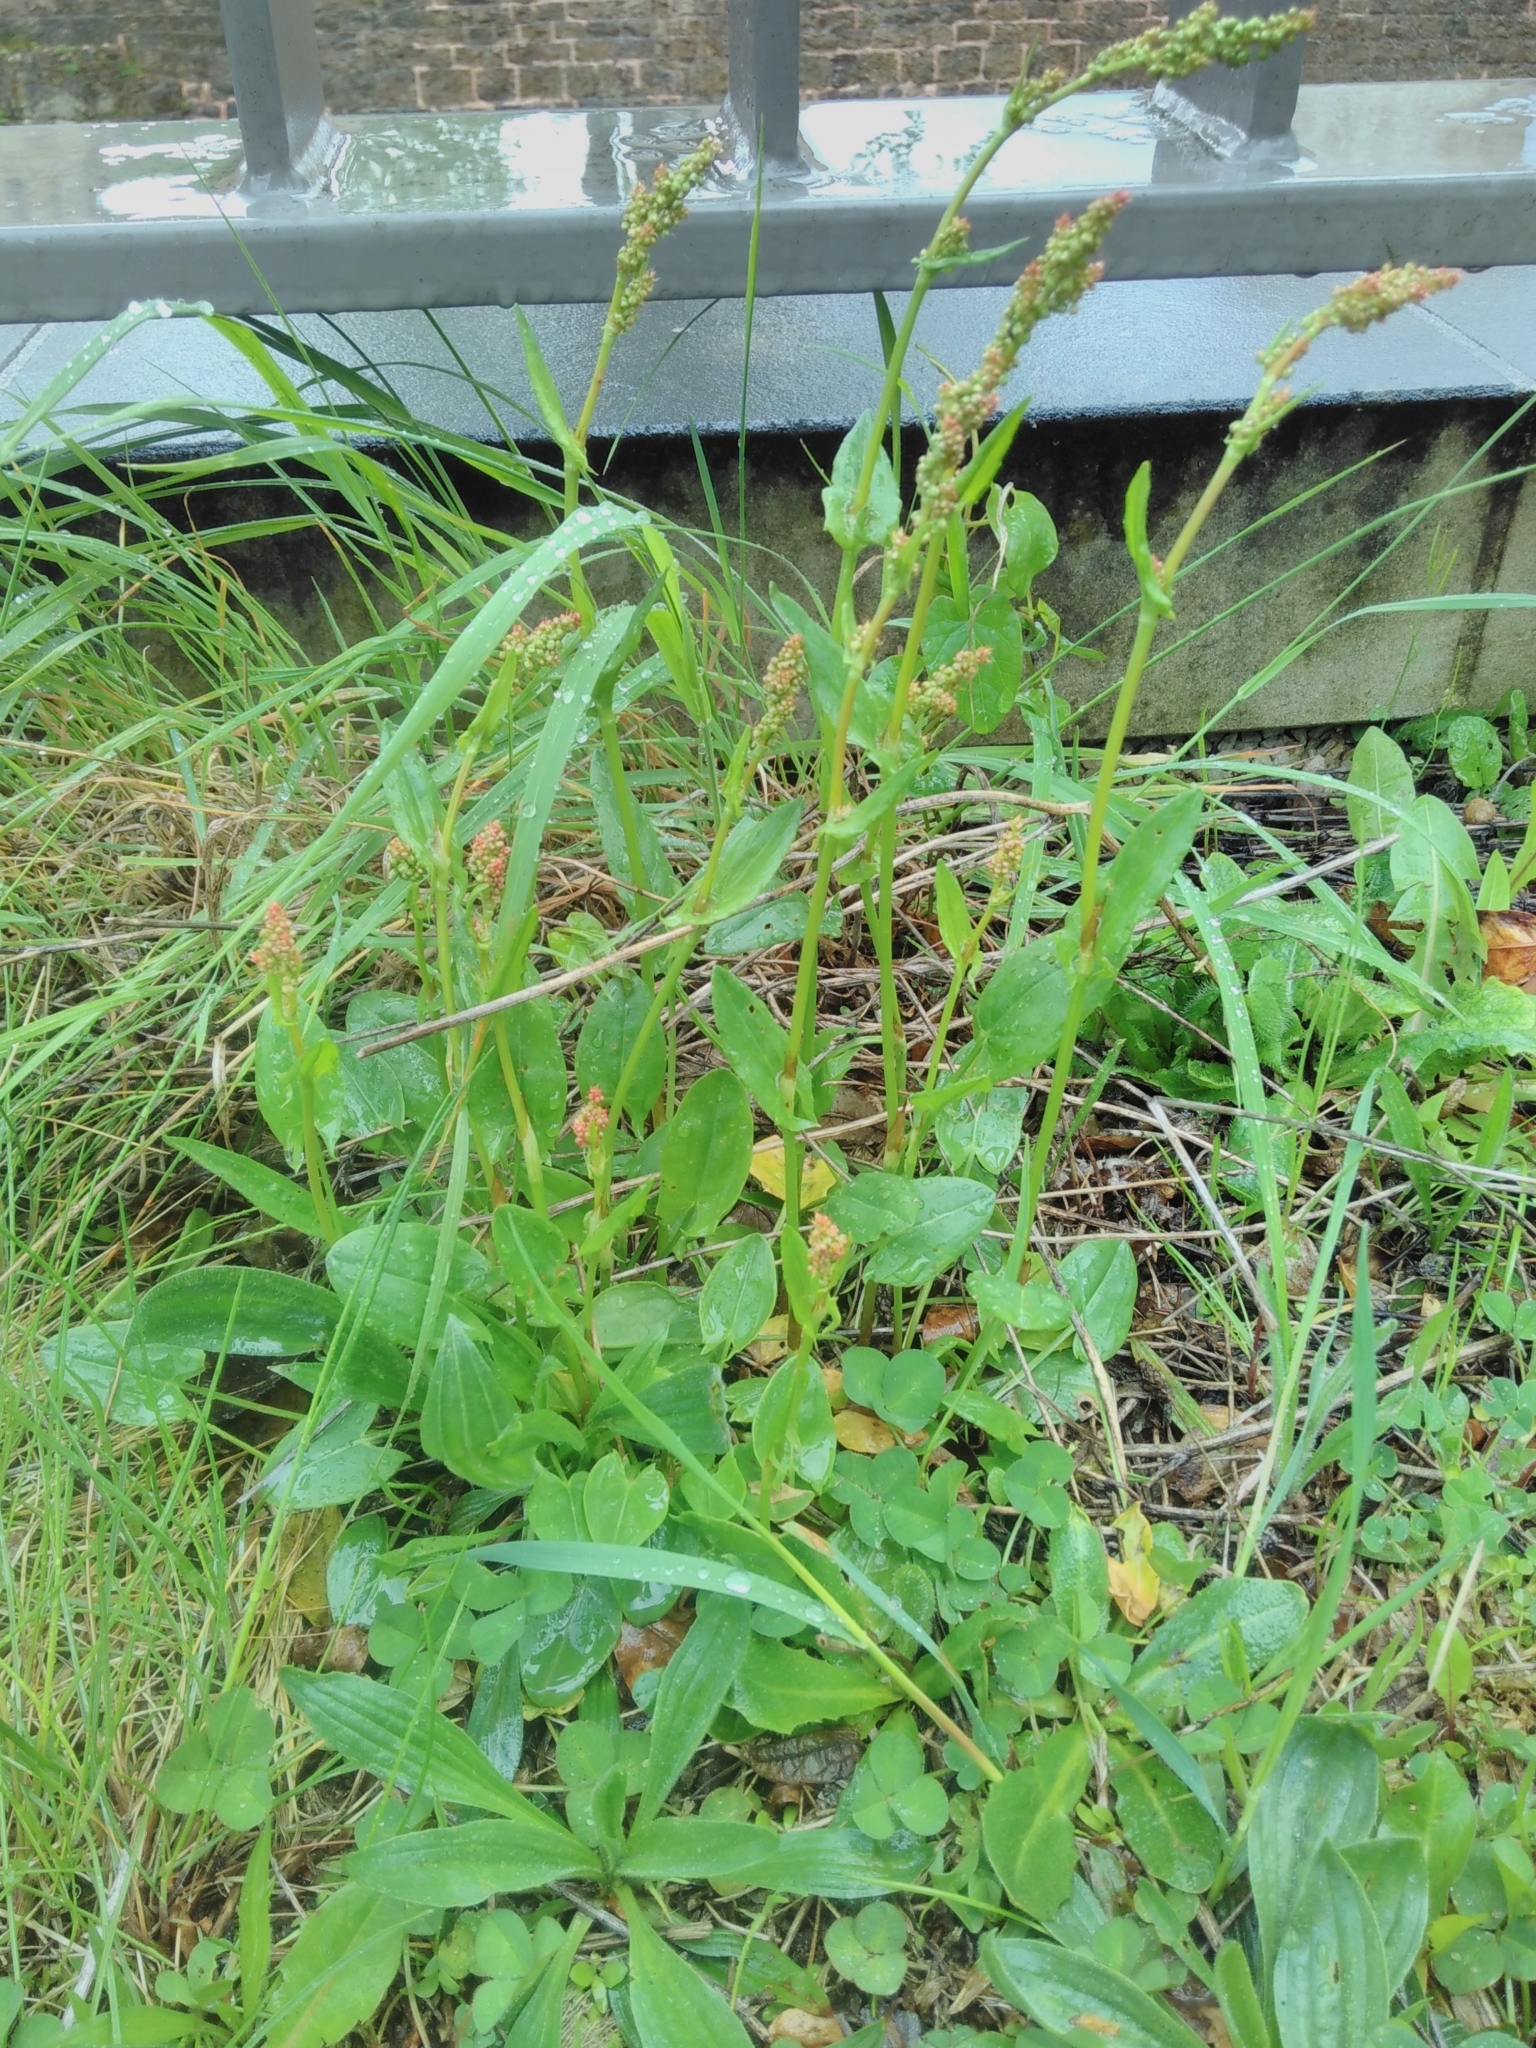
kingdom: Plantae
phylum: Tracheophyta
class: Magnoliopsida
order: Caryophyllales
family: Polygonaceae
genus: Rumex
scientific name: Rumex acetosa
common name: Garden sorrel
